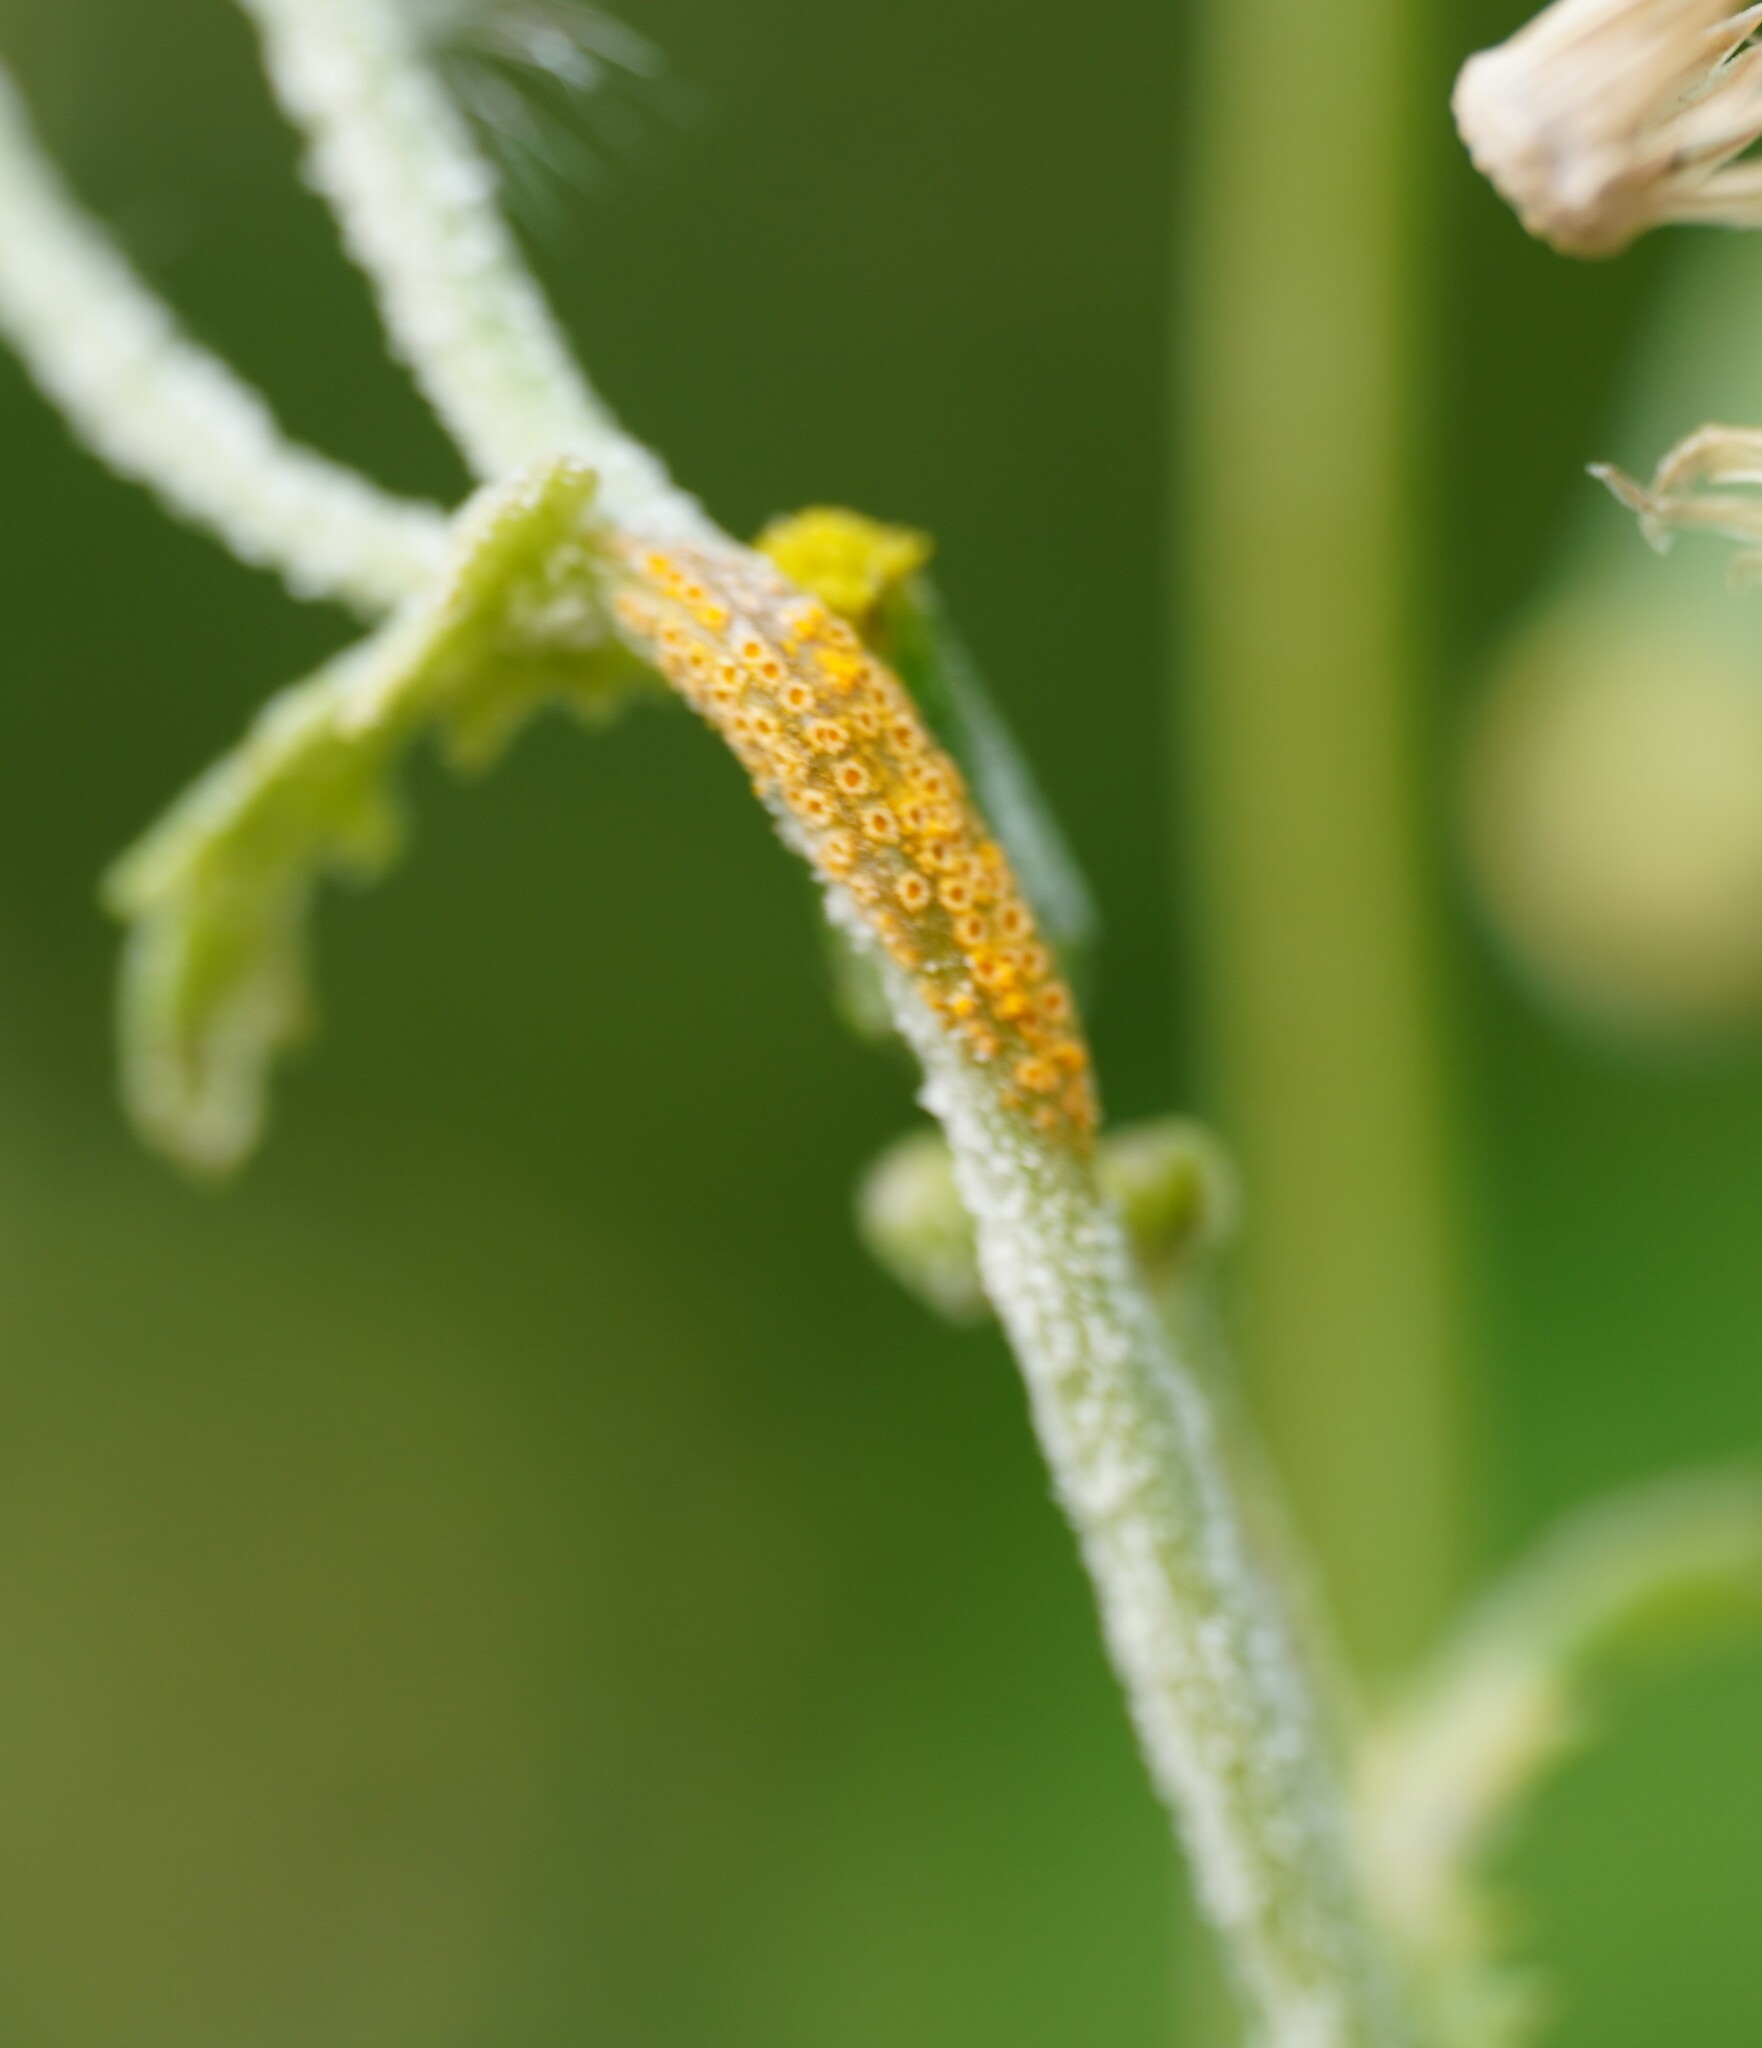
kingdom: Fungi
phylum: Basidiomycota
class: Pucciniomycetes
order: Pucciniales
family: Pucciniaceae
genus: Puccinia
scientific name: Puccinia lagenophorae
